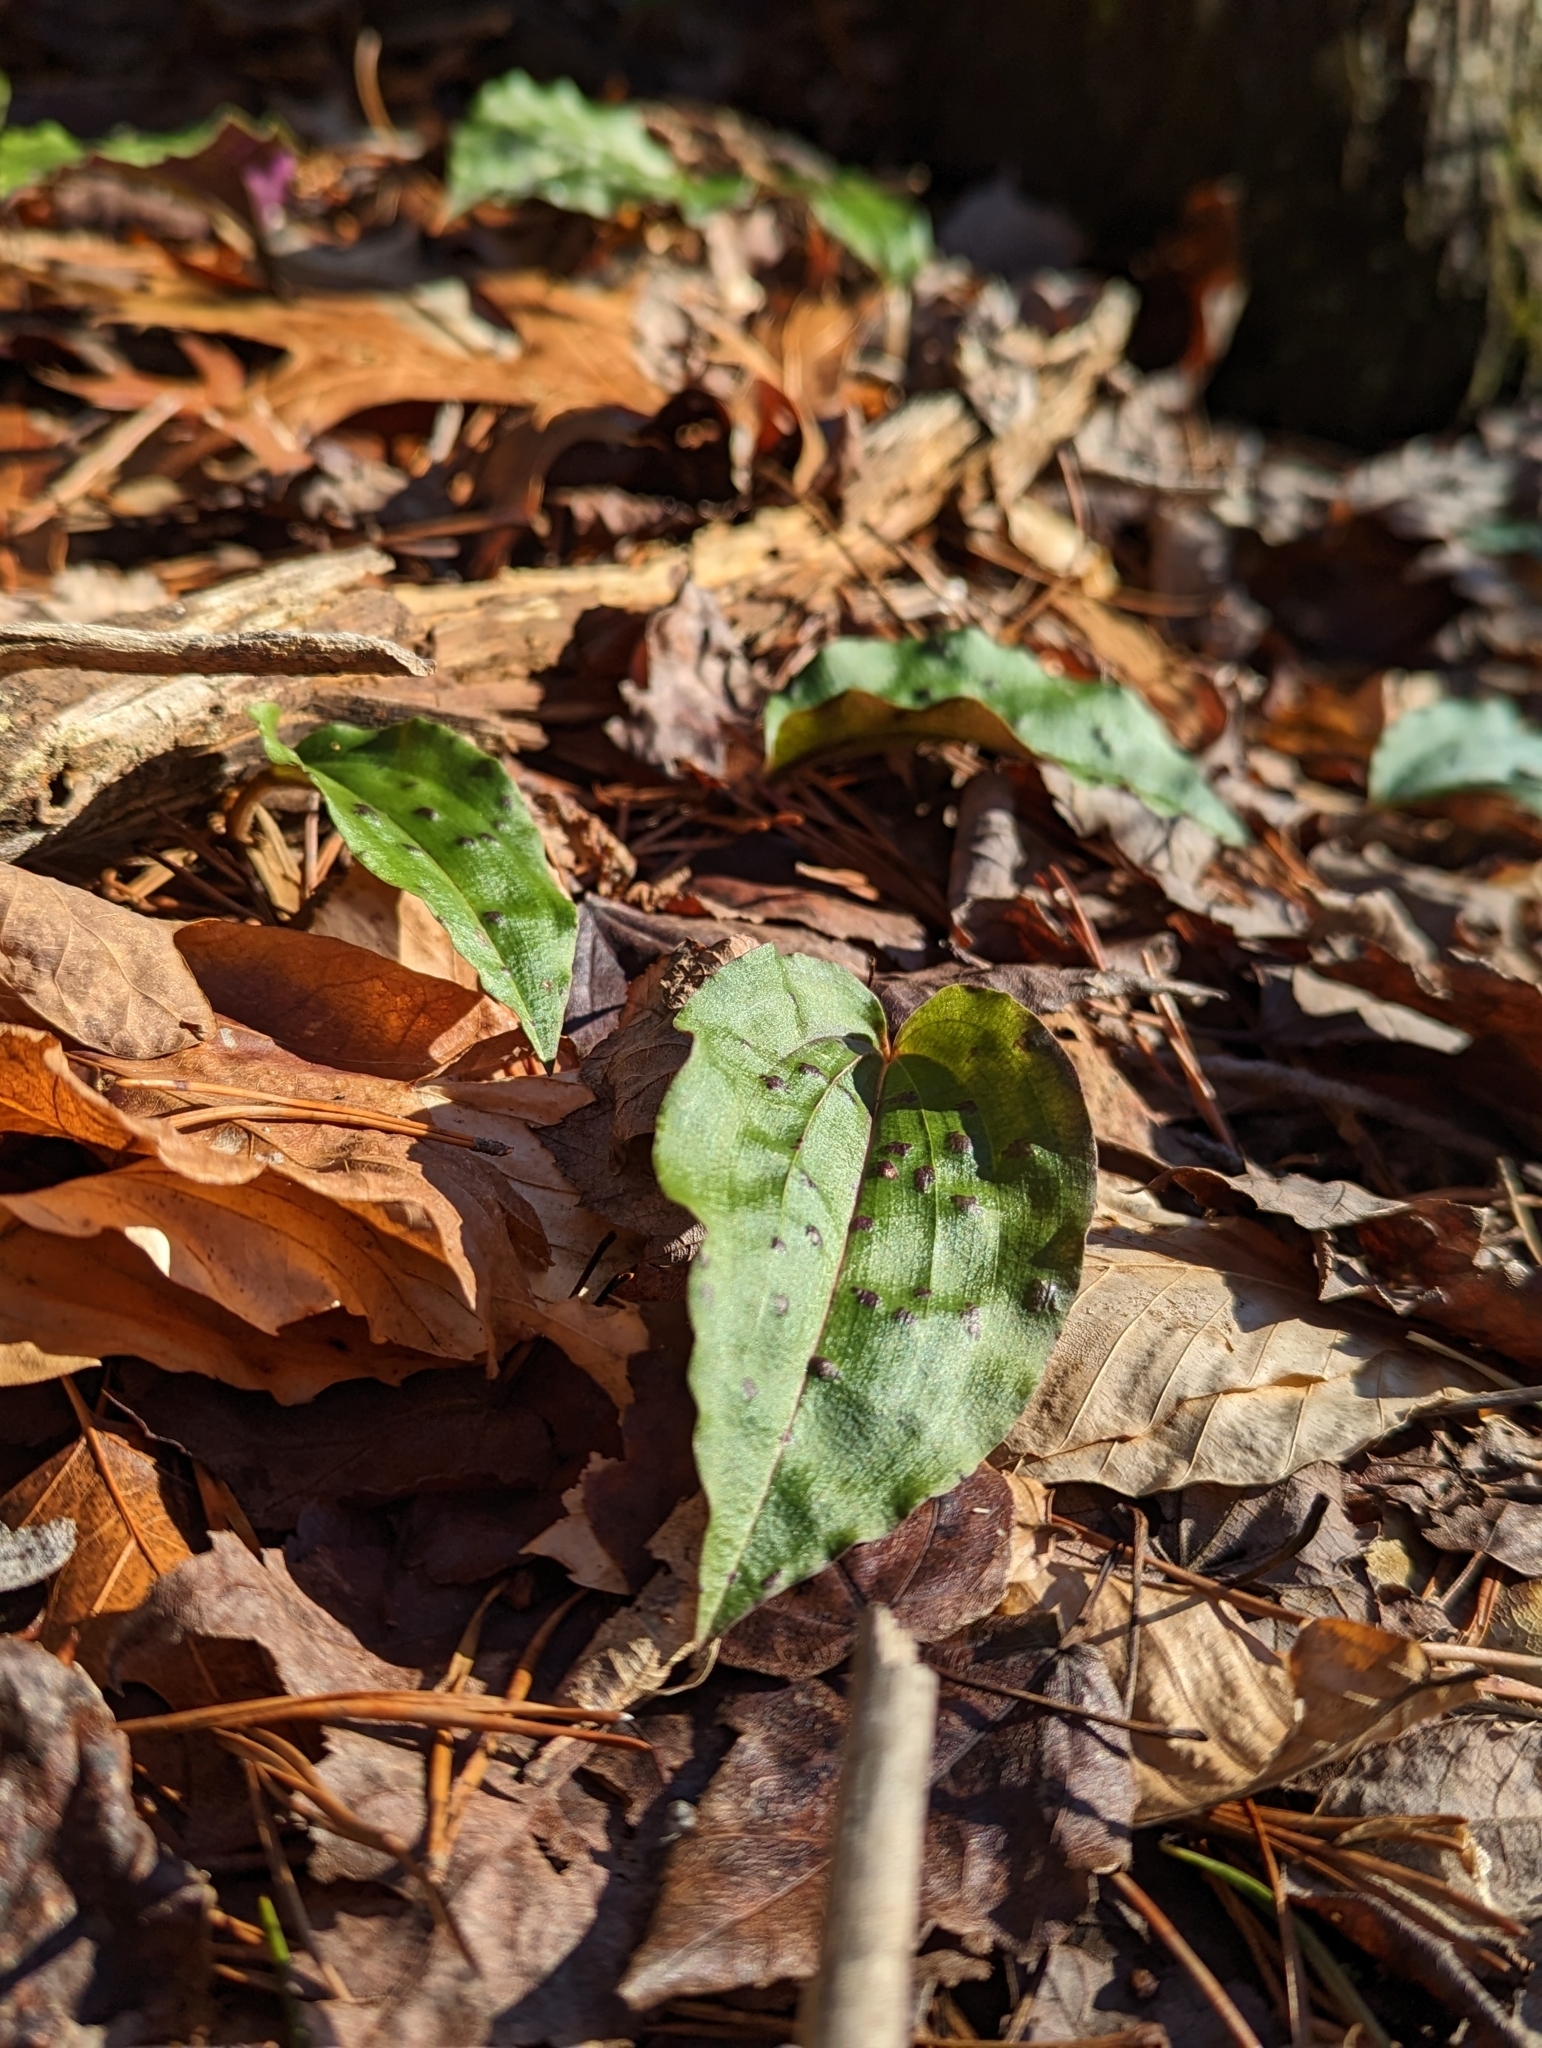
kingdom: Plantae
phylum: Tracheophyta
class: Liliopsida
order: Asparagales
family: Orchidaceae
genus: Tipularia
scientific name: Tipularia discolor
